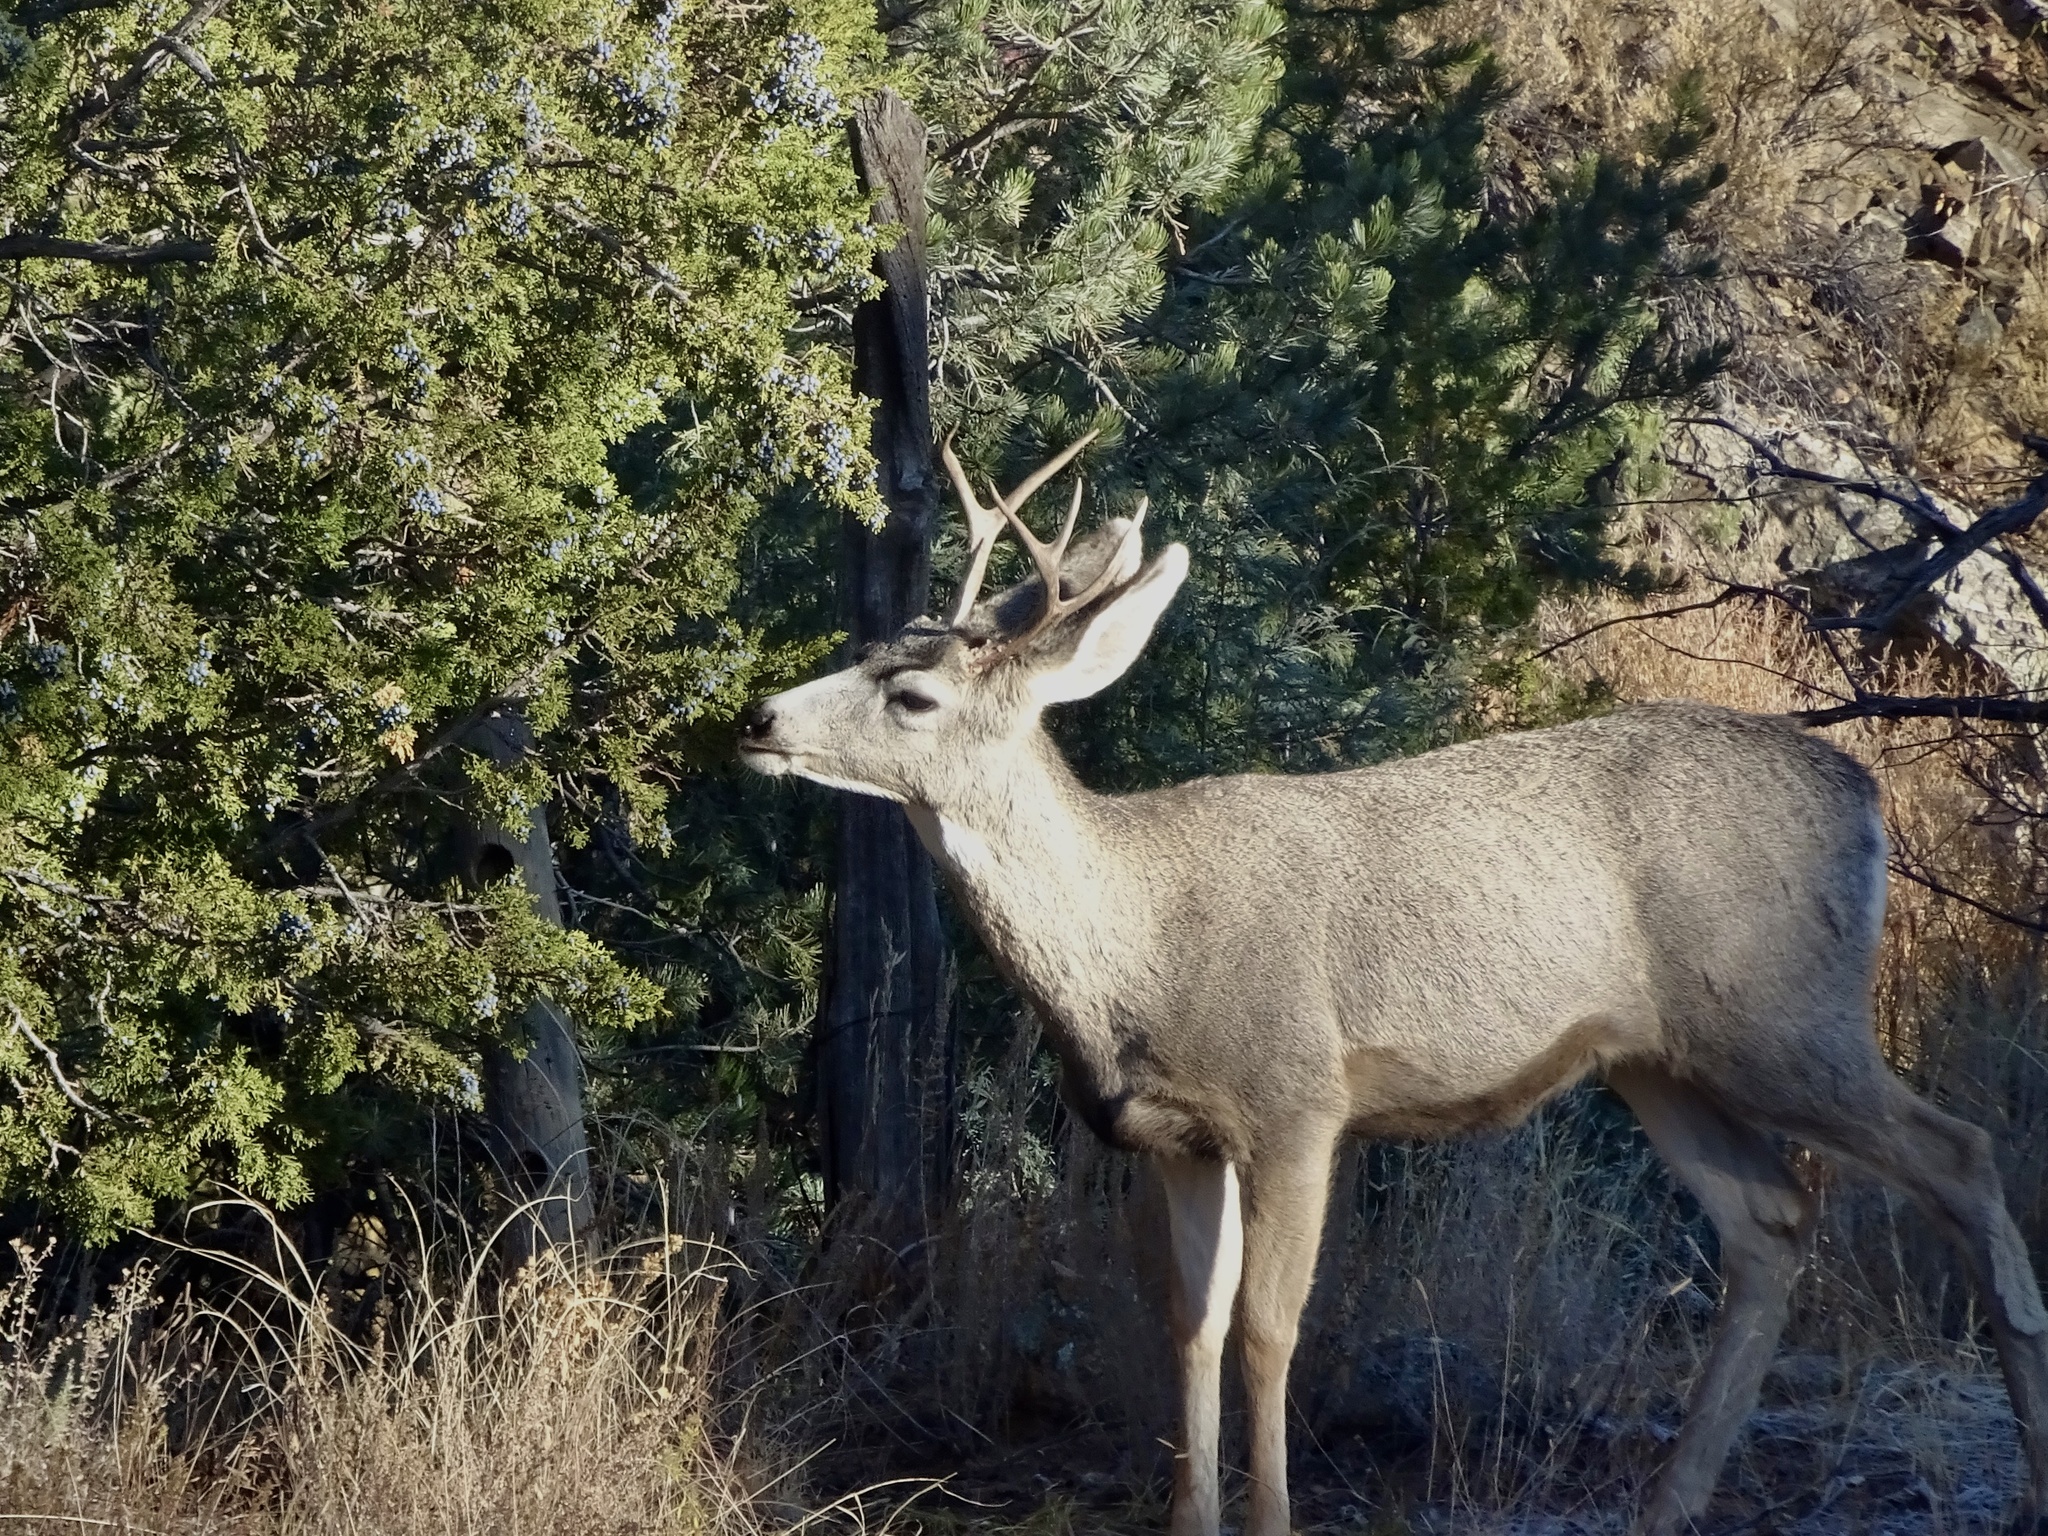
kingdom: Animalia
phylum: Chordata
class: Mammalia
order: Artiodactyla
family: Cervidae
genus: Odocoileus
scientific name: Odocoileus hemionus
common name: Mule deer
